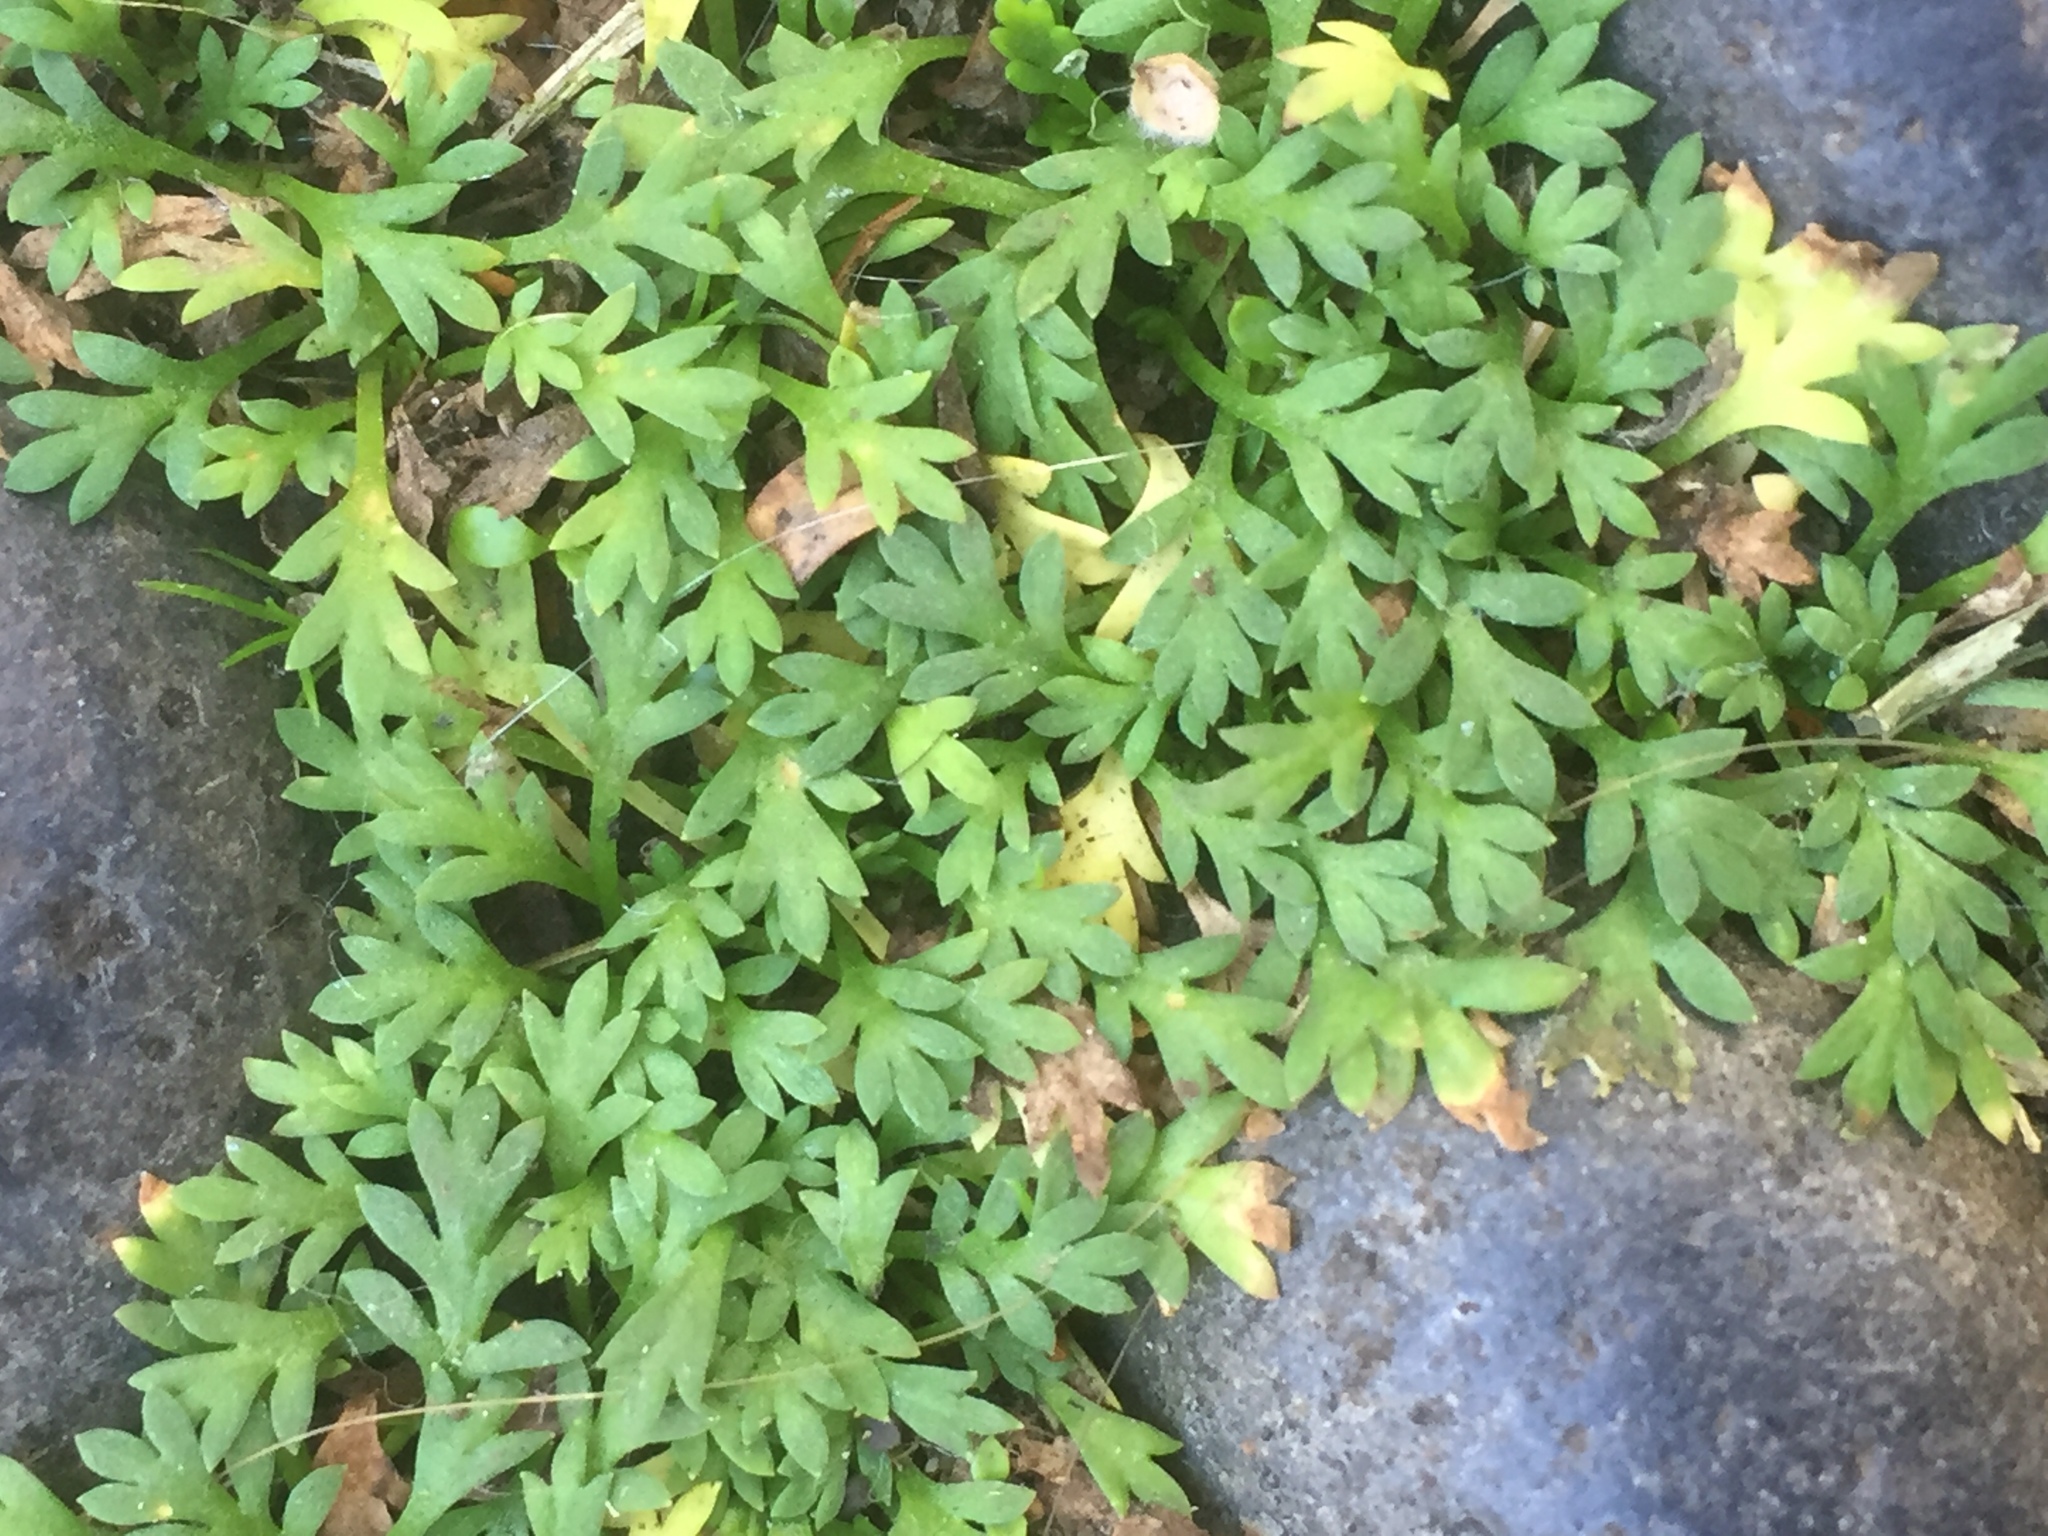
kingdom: Plantae
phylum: Tracheophyta
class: Magnoliopsida
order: Asterales
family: Asteraceae
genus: Cotula
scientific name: Cotula australis
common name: Australian waterbuttons
